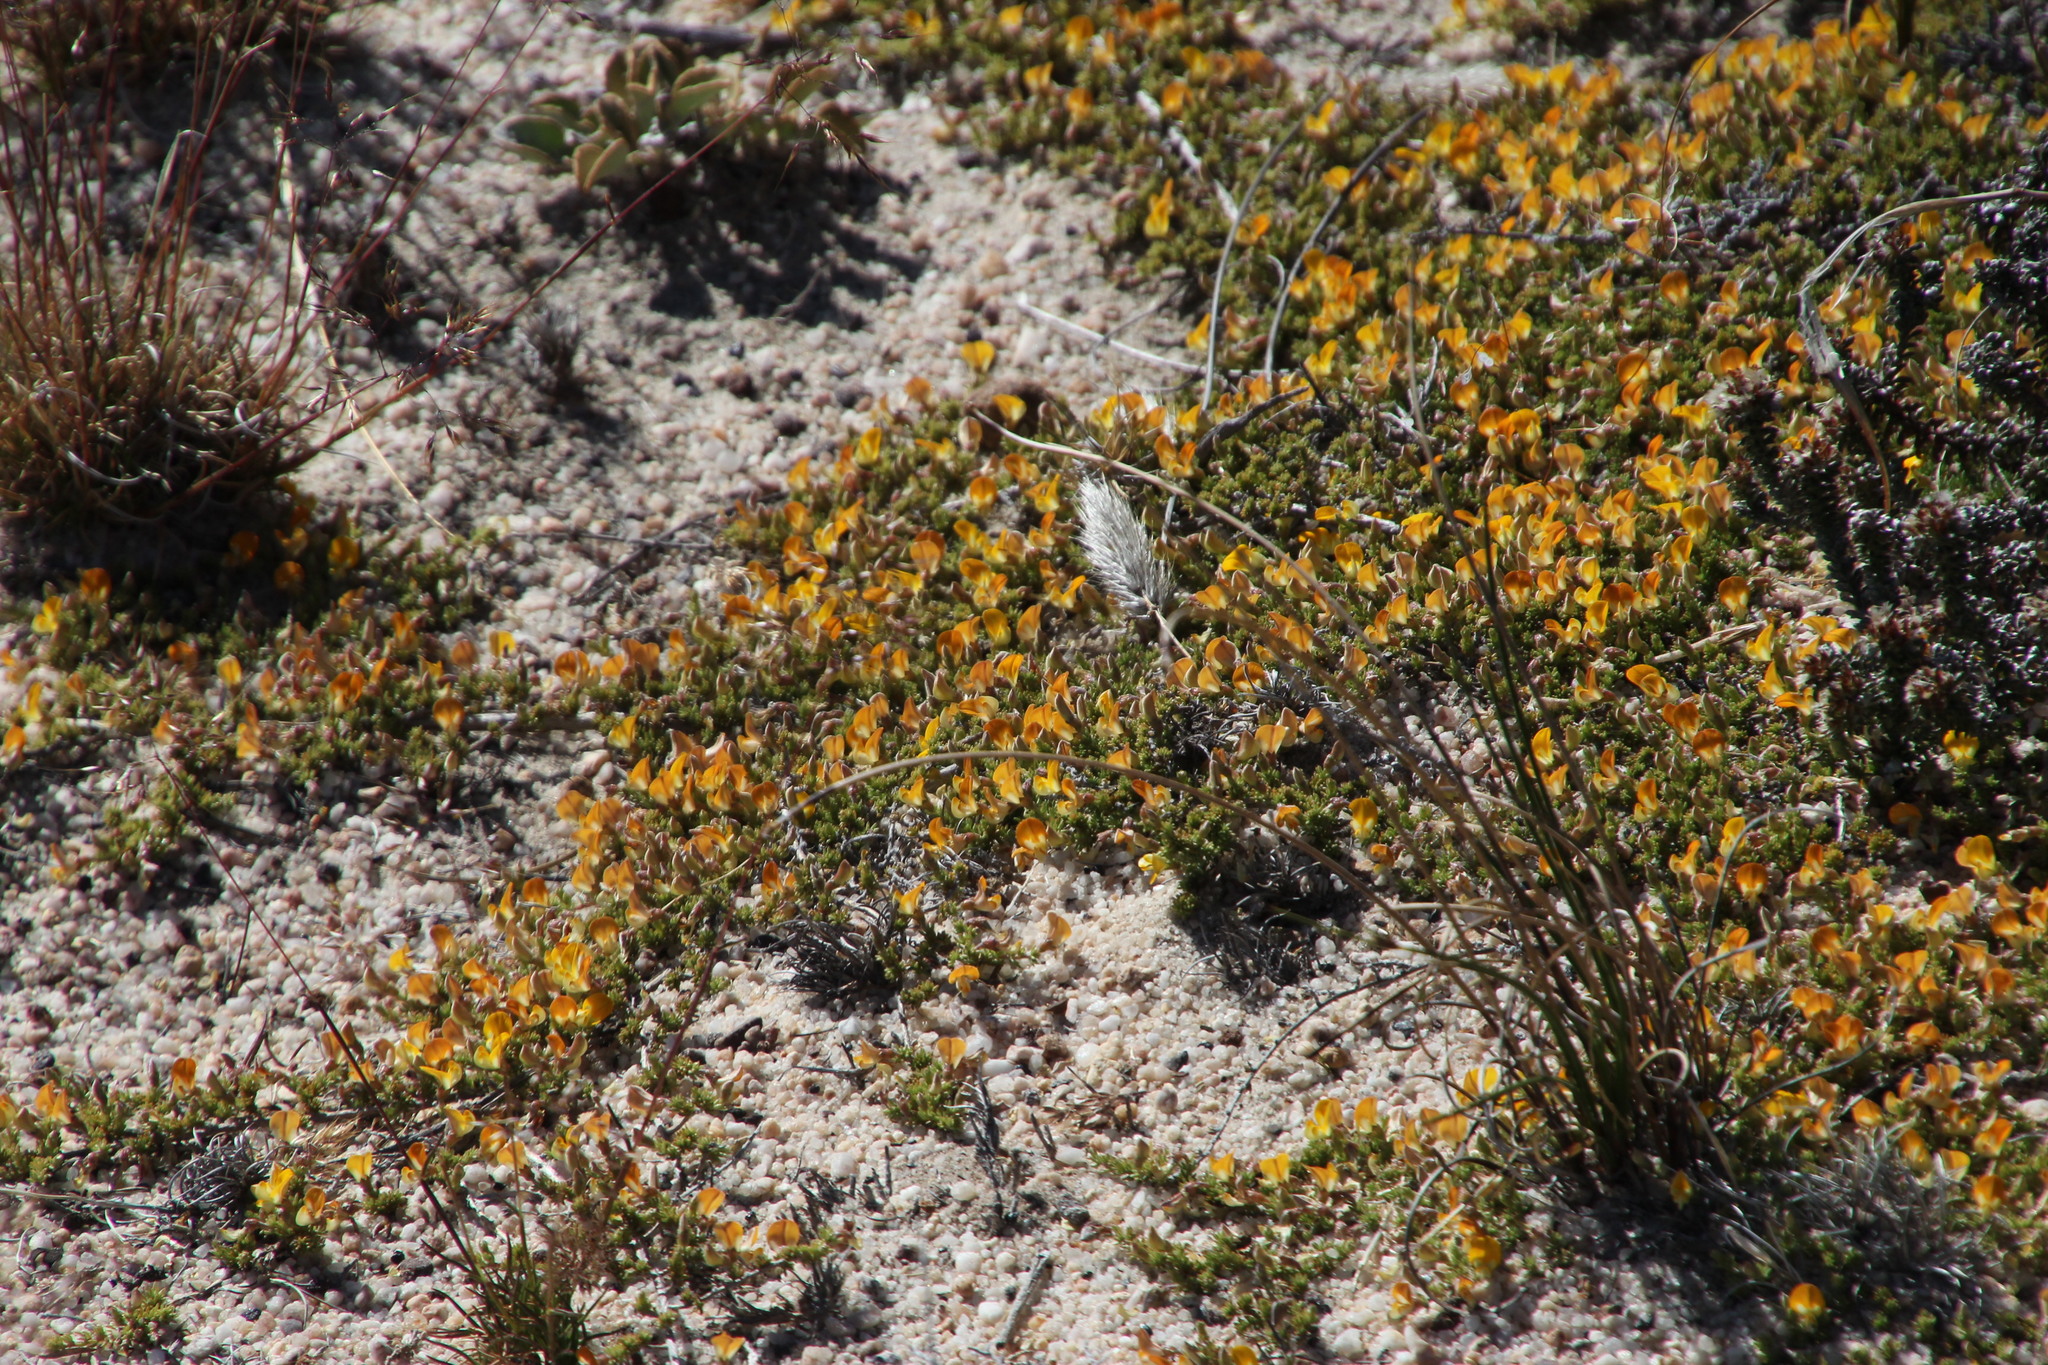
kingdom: Plantae
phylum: Tracheophyta
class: Magnoliopsida
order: Fabales
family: Fabaceae
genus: Aspalathus
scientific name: Aspalathus brevicarpa
